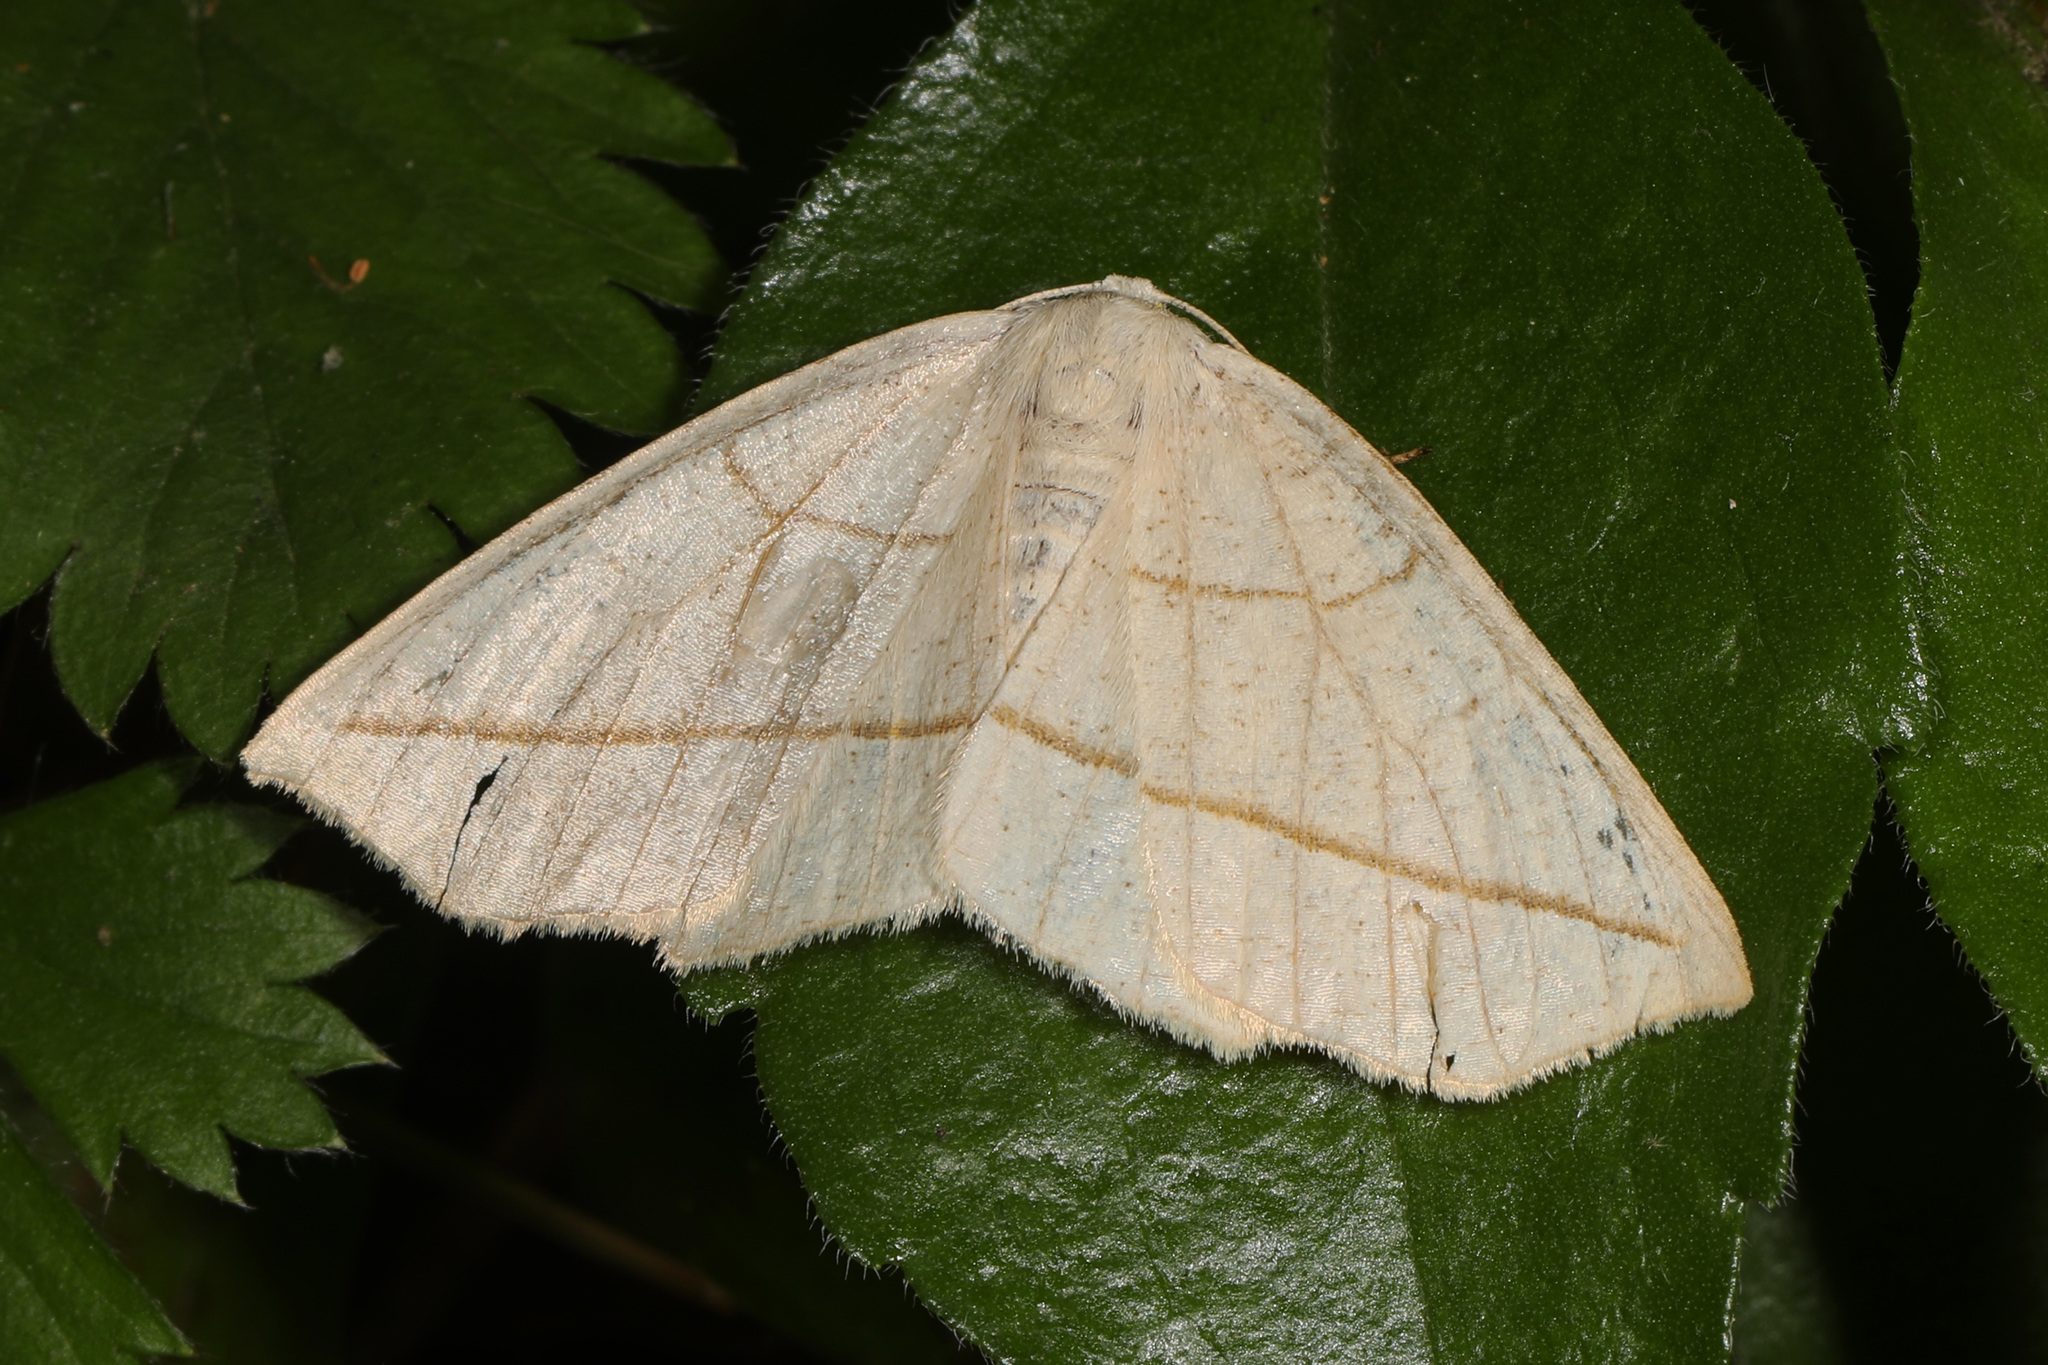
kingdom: Animalia
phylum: Arthropoda
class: Insecta
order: Lepidoptera
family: Geometridae
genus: Eusarca
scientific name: Eusarca confusaria
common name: Confused eusarca
